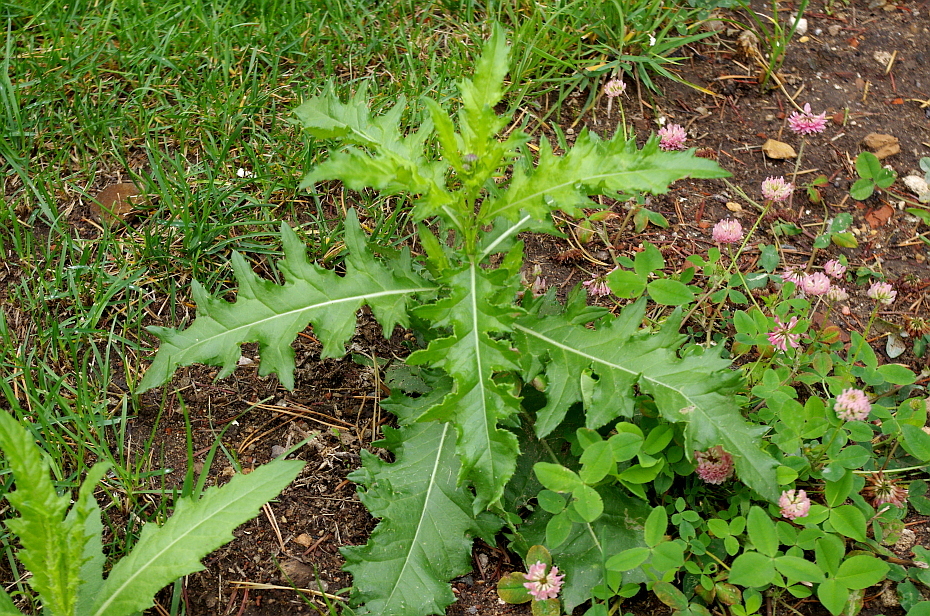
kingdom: Plantae
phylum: Tracheophyta
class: Magnoliopsida
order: Asterales
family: Asteraceae
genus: Cirsium
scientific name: Cirsium arvense
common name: Creeping thistle
